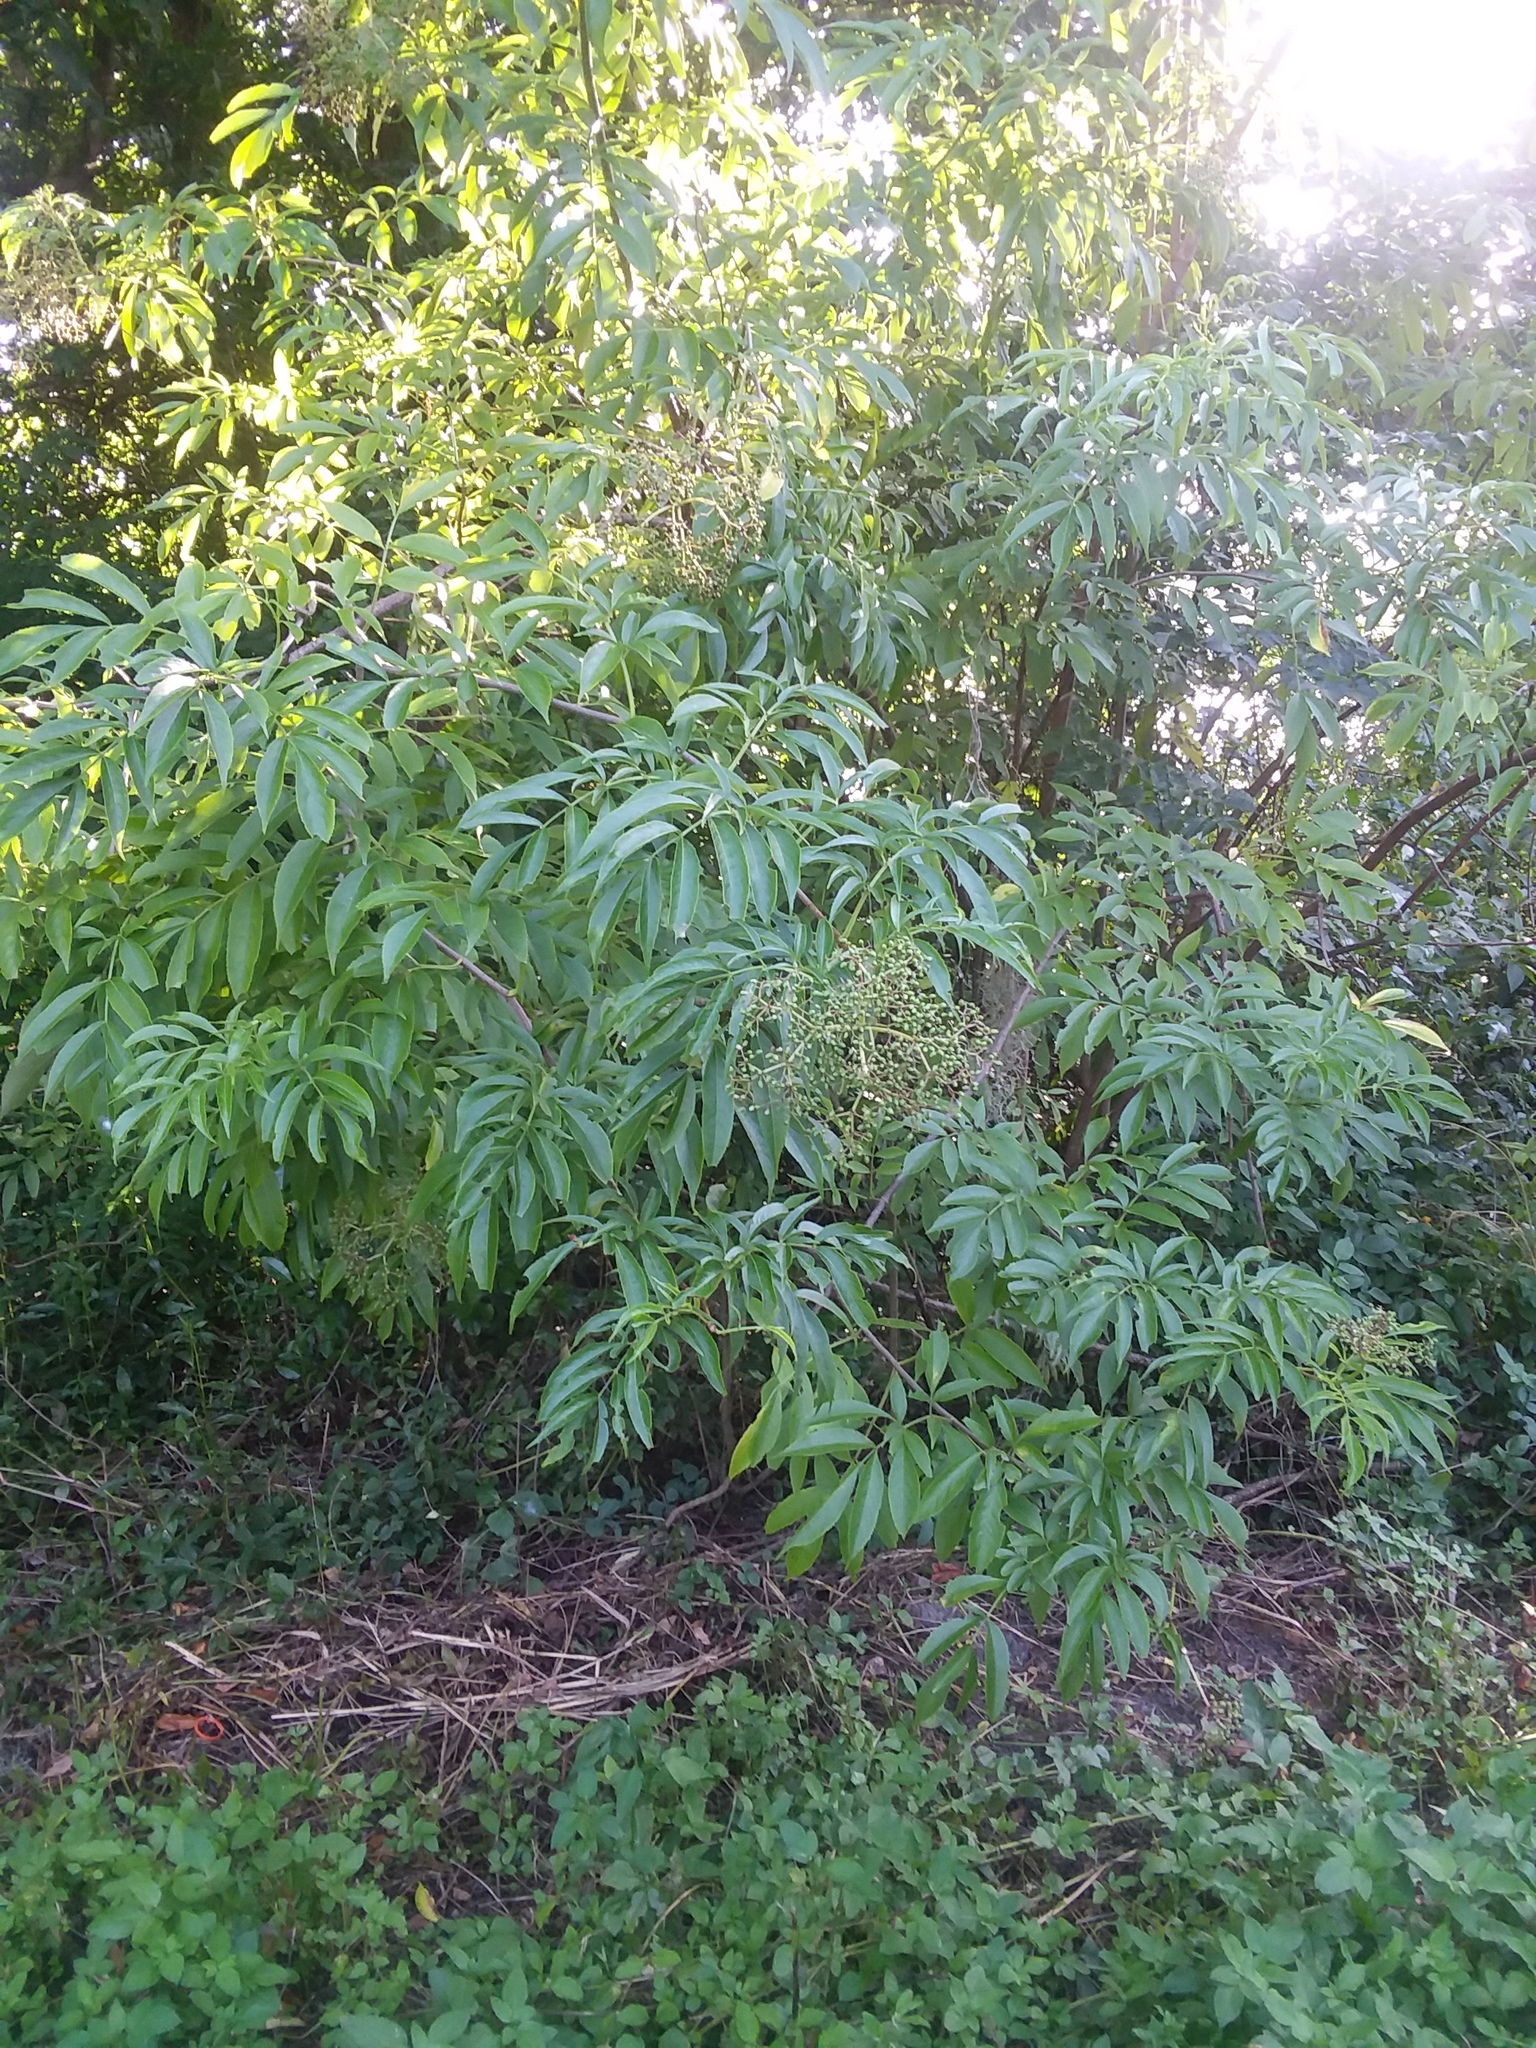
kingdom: Plantae
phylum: Tracheophyta
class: Magnoliopsida
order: Dipsacales
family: Viburnaceae
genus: Sambucus
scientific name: Sambucus canadensis
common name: American elder
